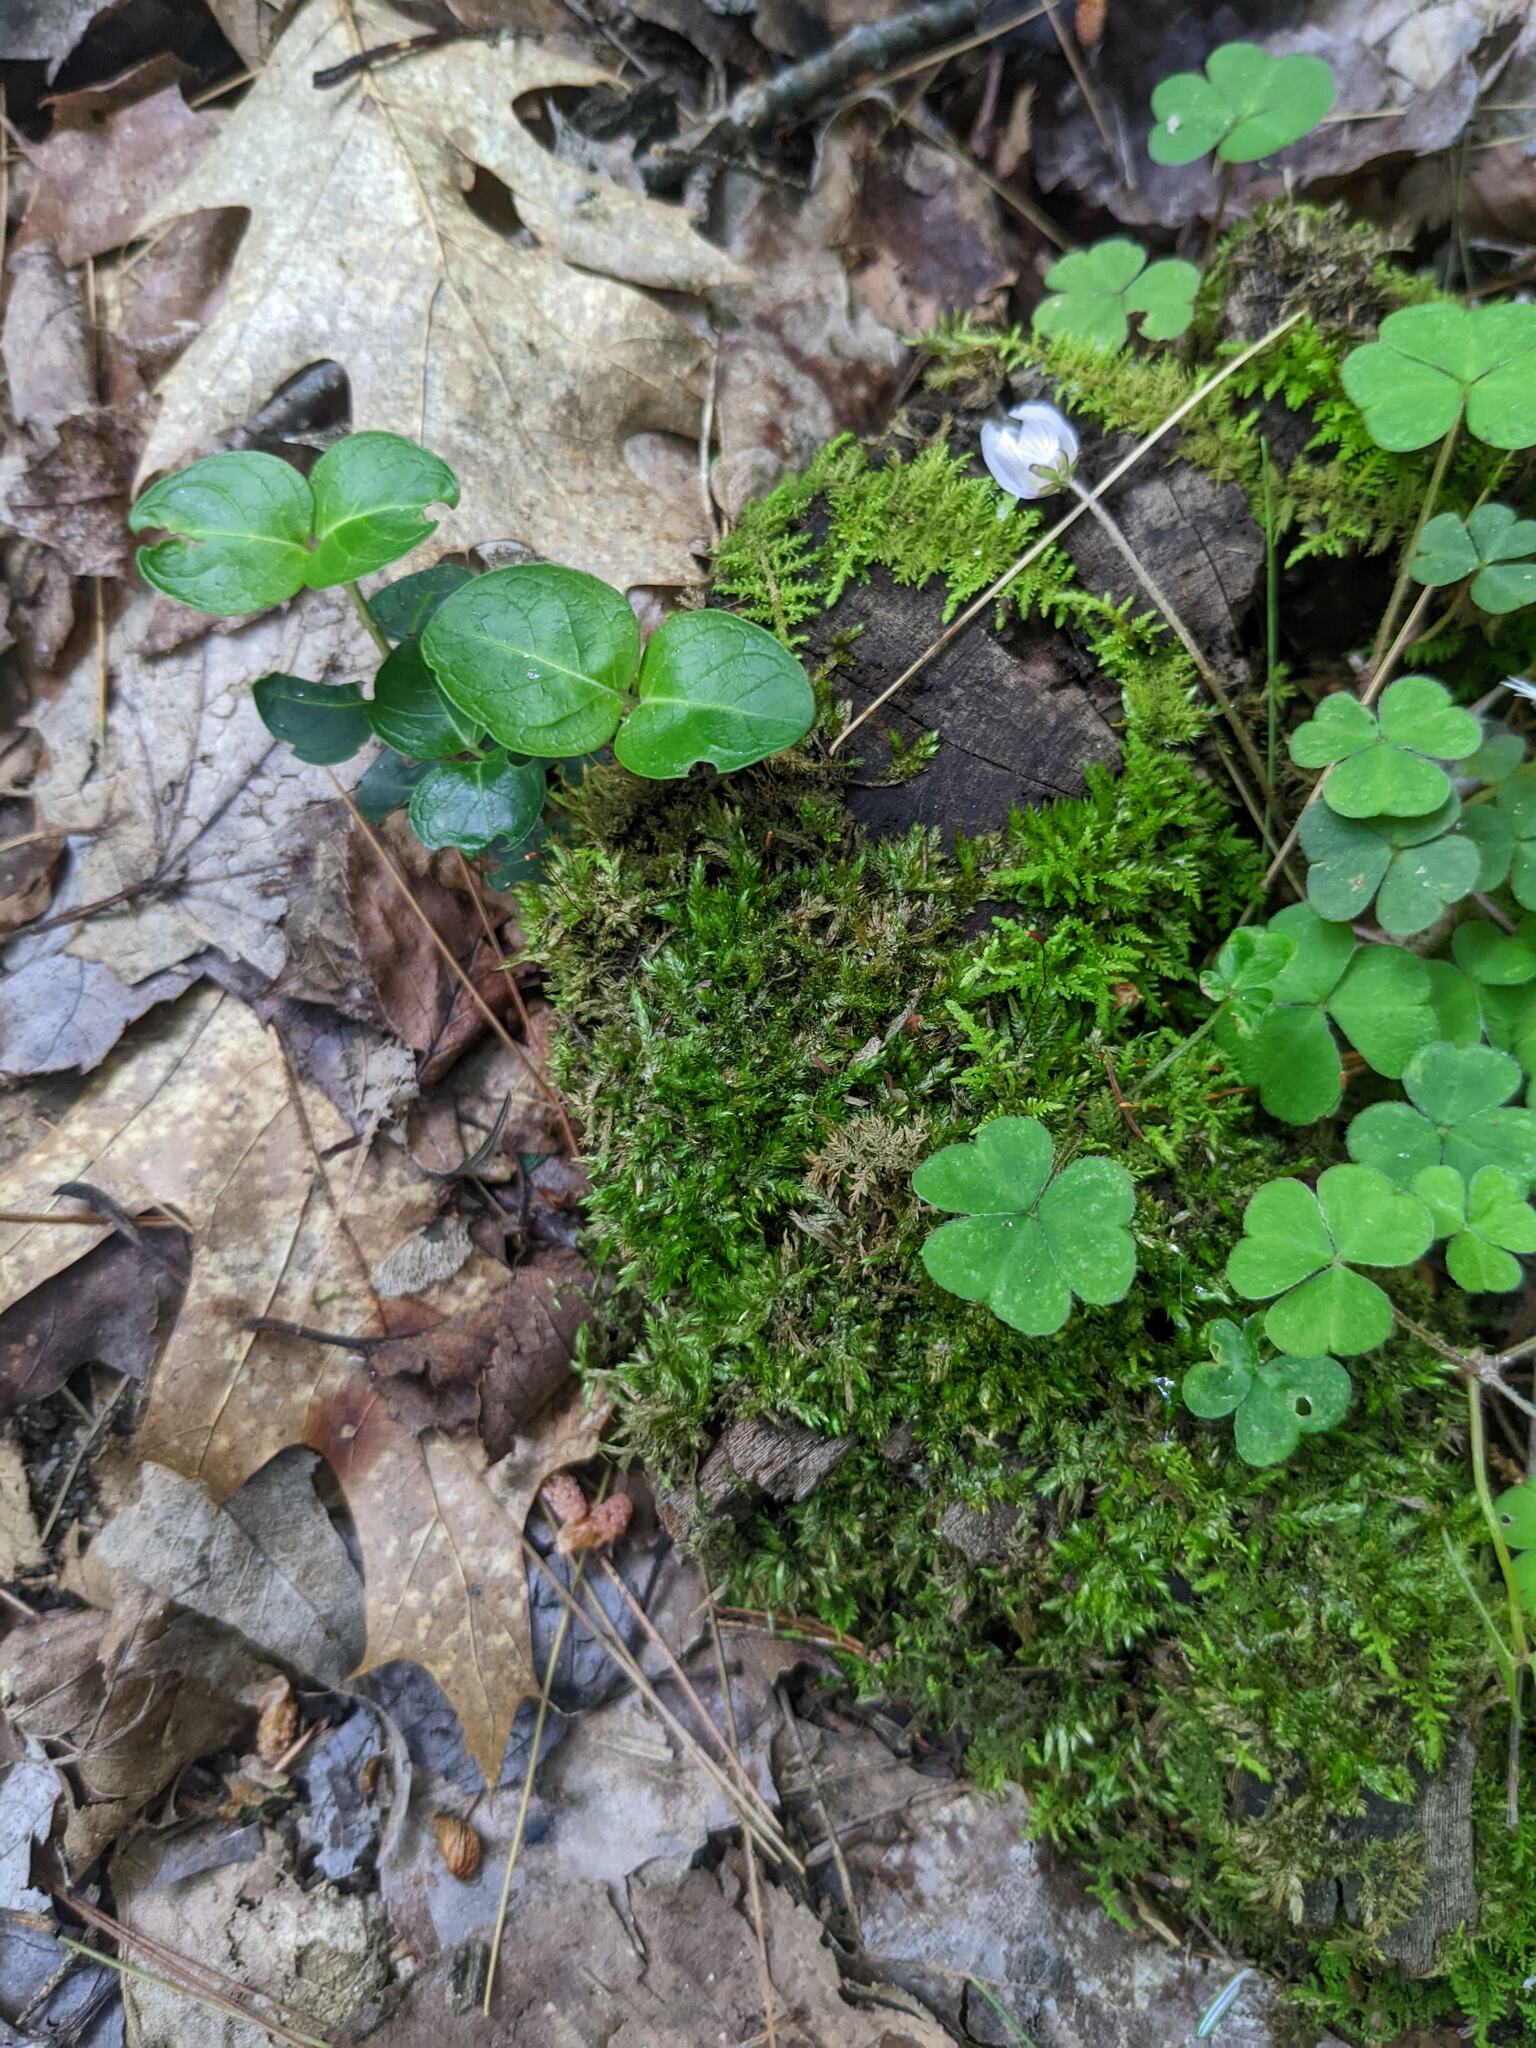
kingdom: Plantae
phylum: Tracheophyta
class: Magnoliopsida
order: Oxalidales
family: Oxalidaceae
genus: Oxalis
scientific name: Oxalis montana
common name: American wood-sorrel
